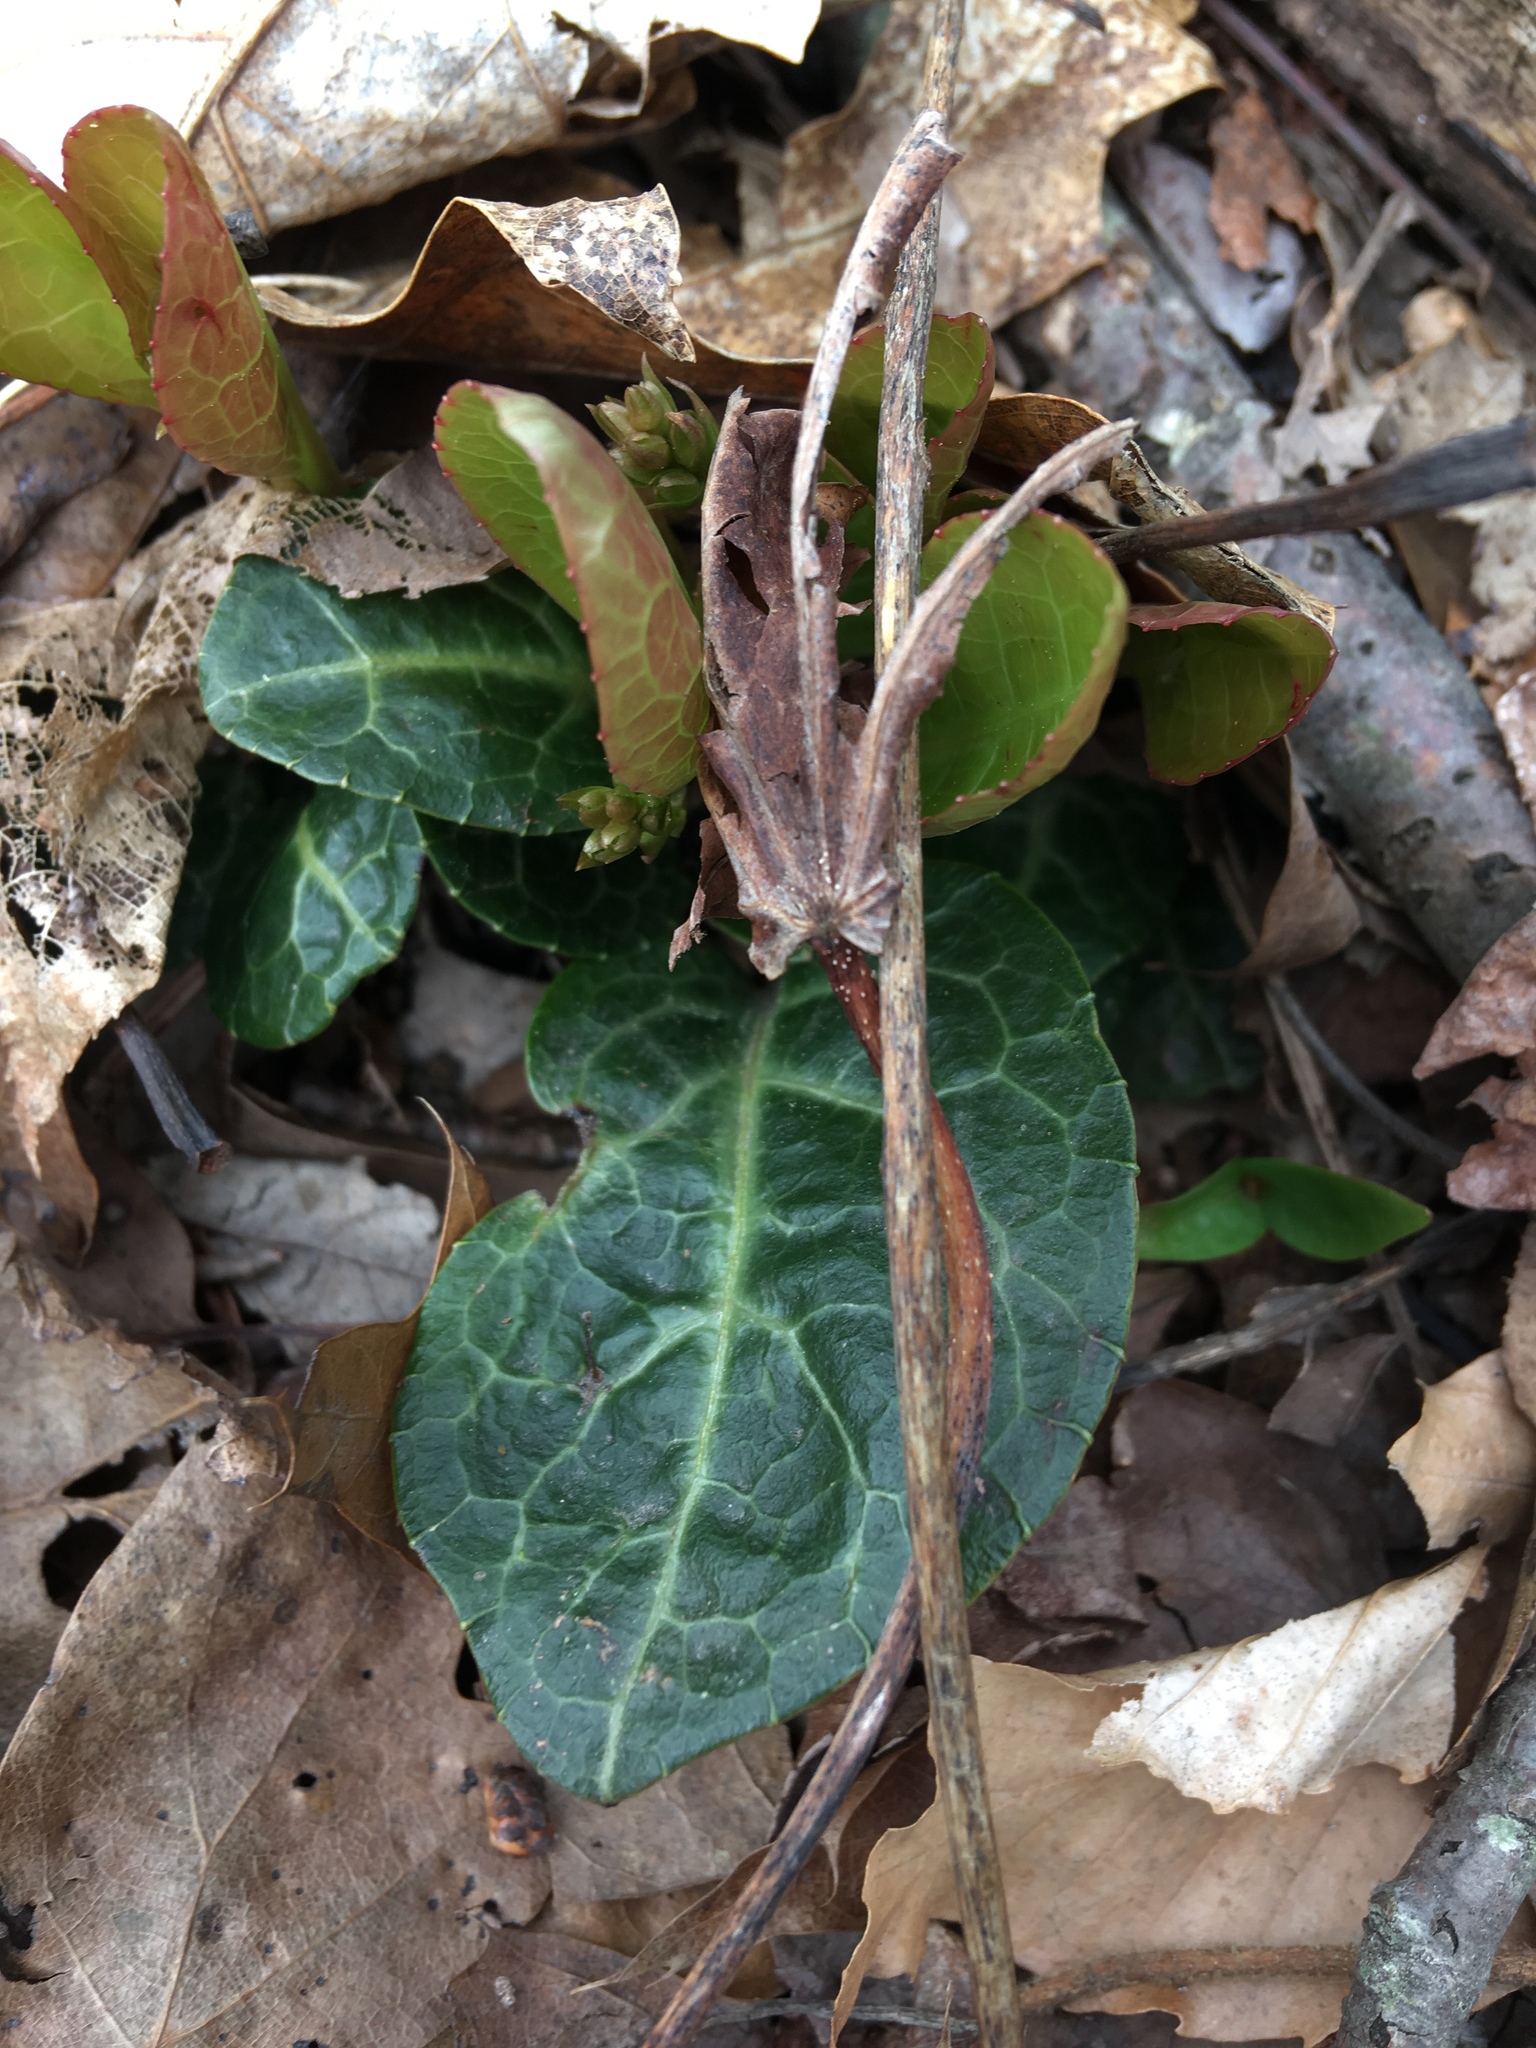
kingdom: Plantae
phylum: Tracheophyta
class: Magnoliopsida
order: Ericales
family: Ericaceae
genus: Pyrola
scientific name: Pyrola americana
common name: American wintergreen
